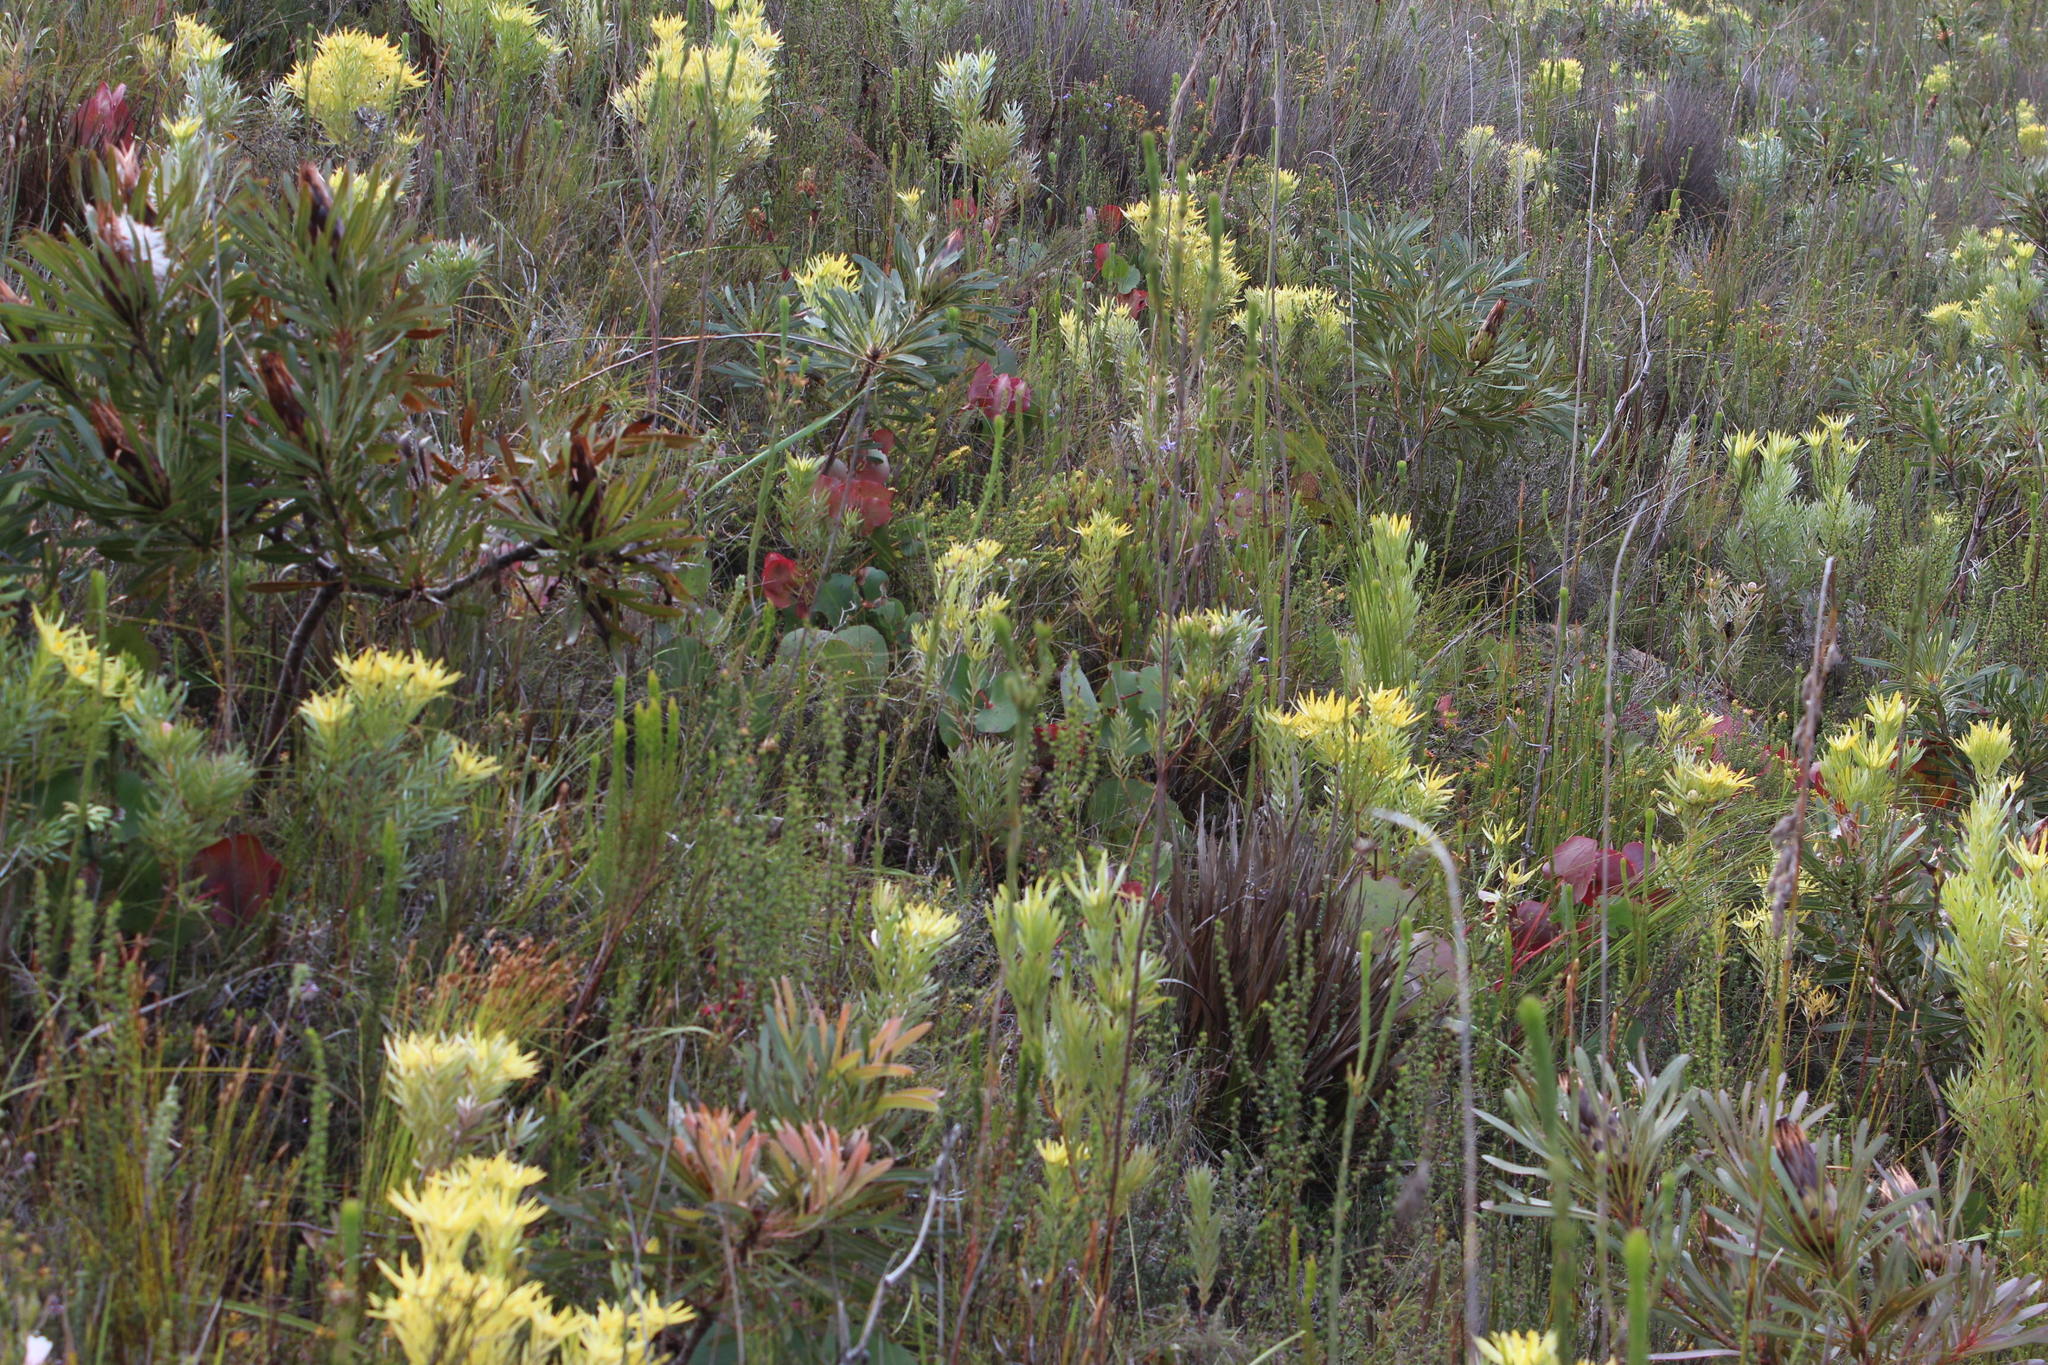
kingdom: Plantae
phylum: Tracheophyta
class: Magnoliopsida
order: Proteales
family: Proteaceae
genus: Protea
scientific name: Protea cordata
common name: Heart-leaf sugarbush
